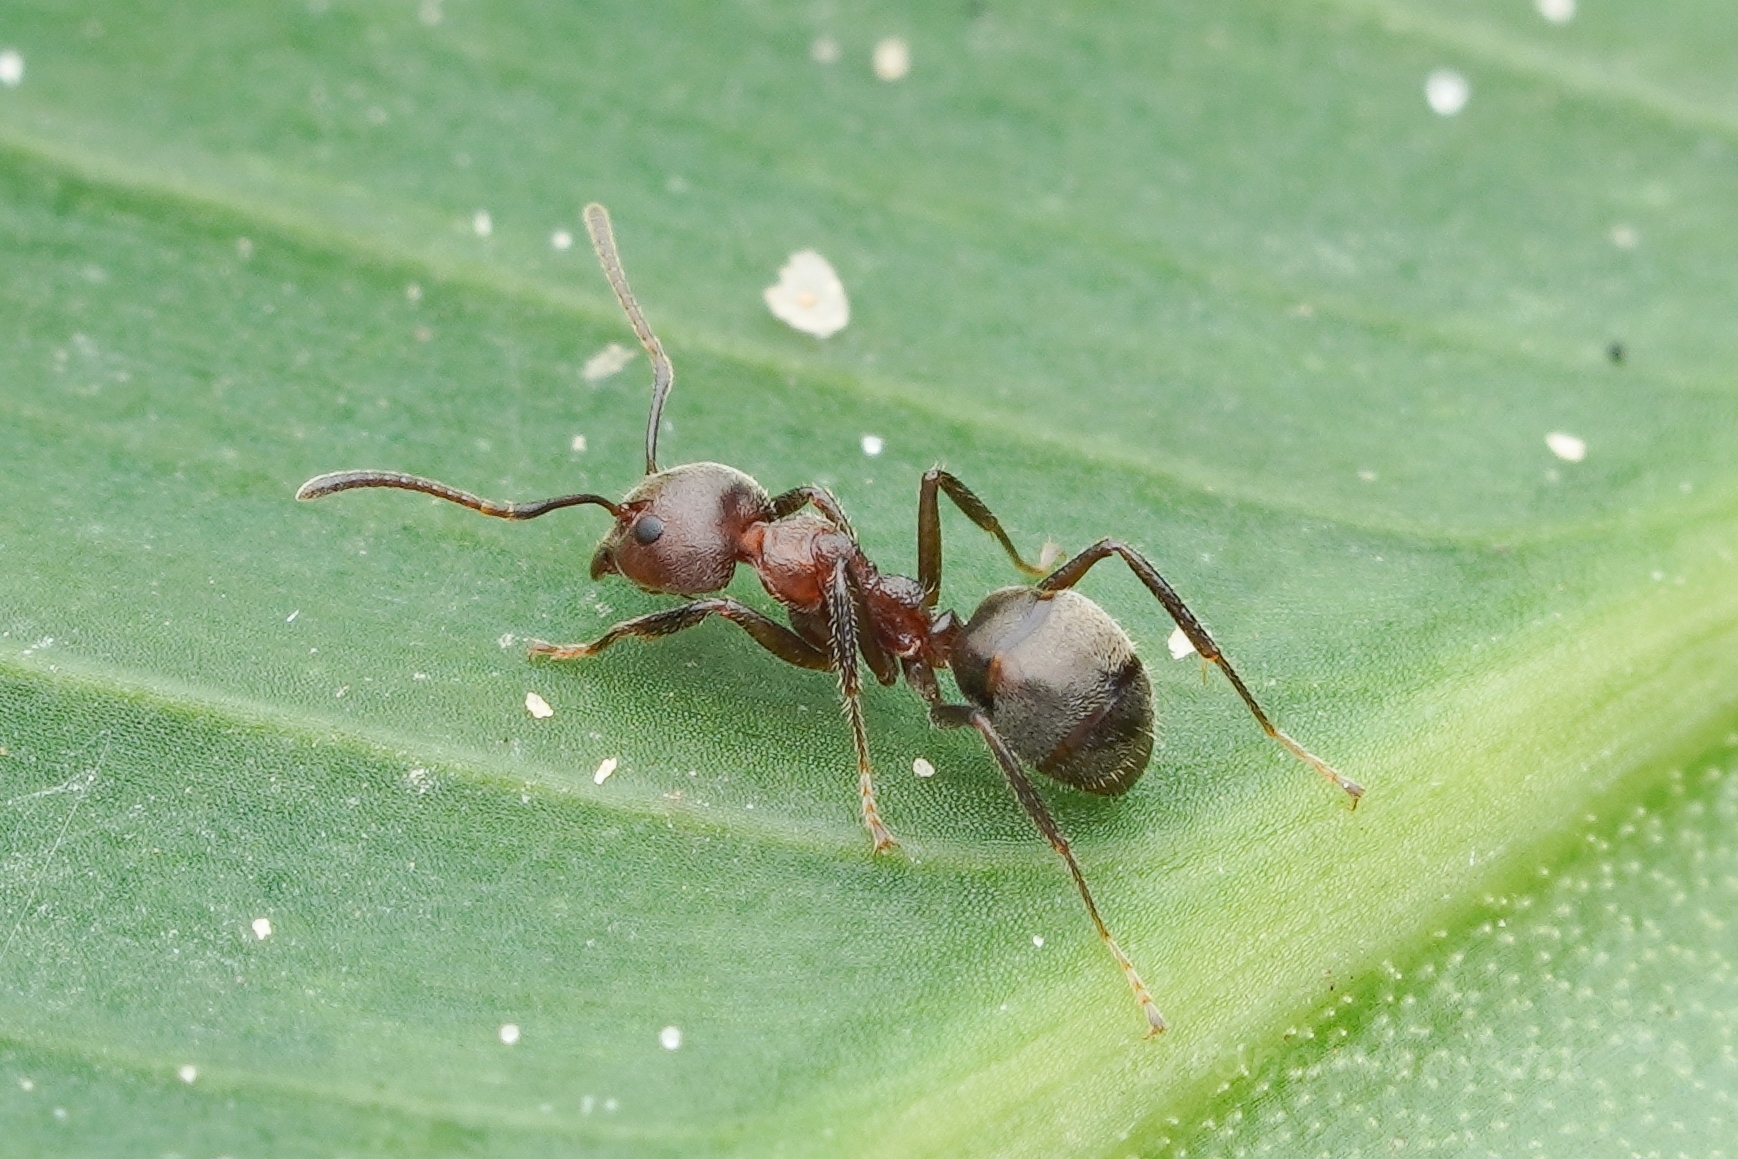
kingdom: Animalia
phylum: Arthropoda
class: Insecta
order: Hymenoptera
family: Formicidae
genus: Dolichoderus
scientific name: Dolichoderus thoracicus
